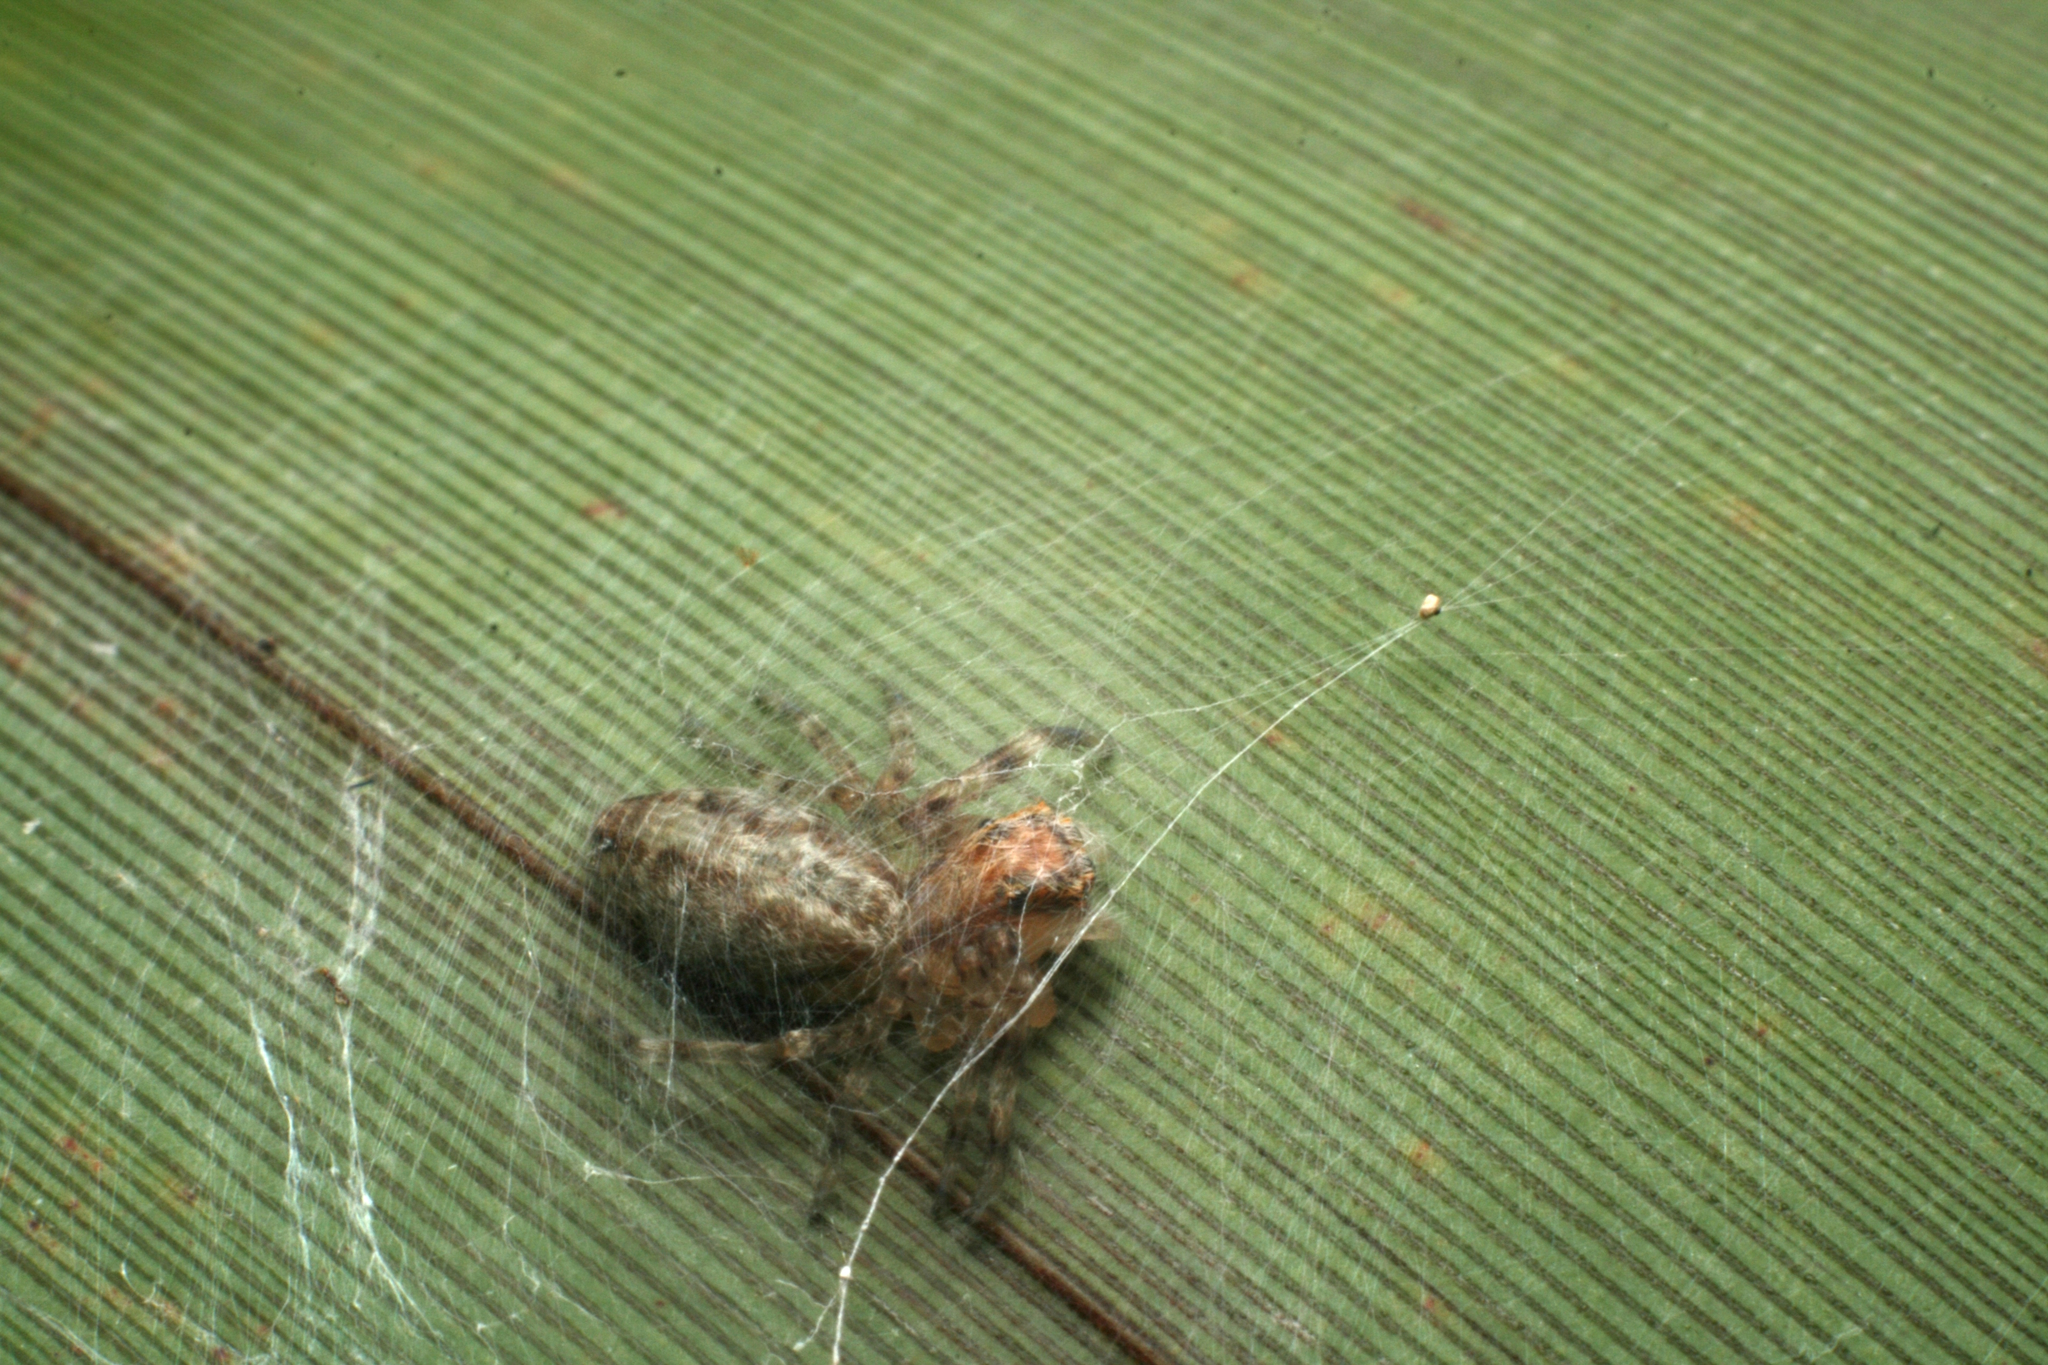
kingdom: Animalia
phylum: Arthropoda
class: Arachnida
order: Araneae
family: Salticidae
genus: Helpis
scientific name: Helpis minitabunda
